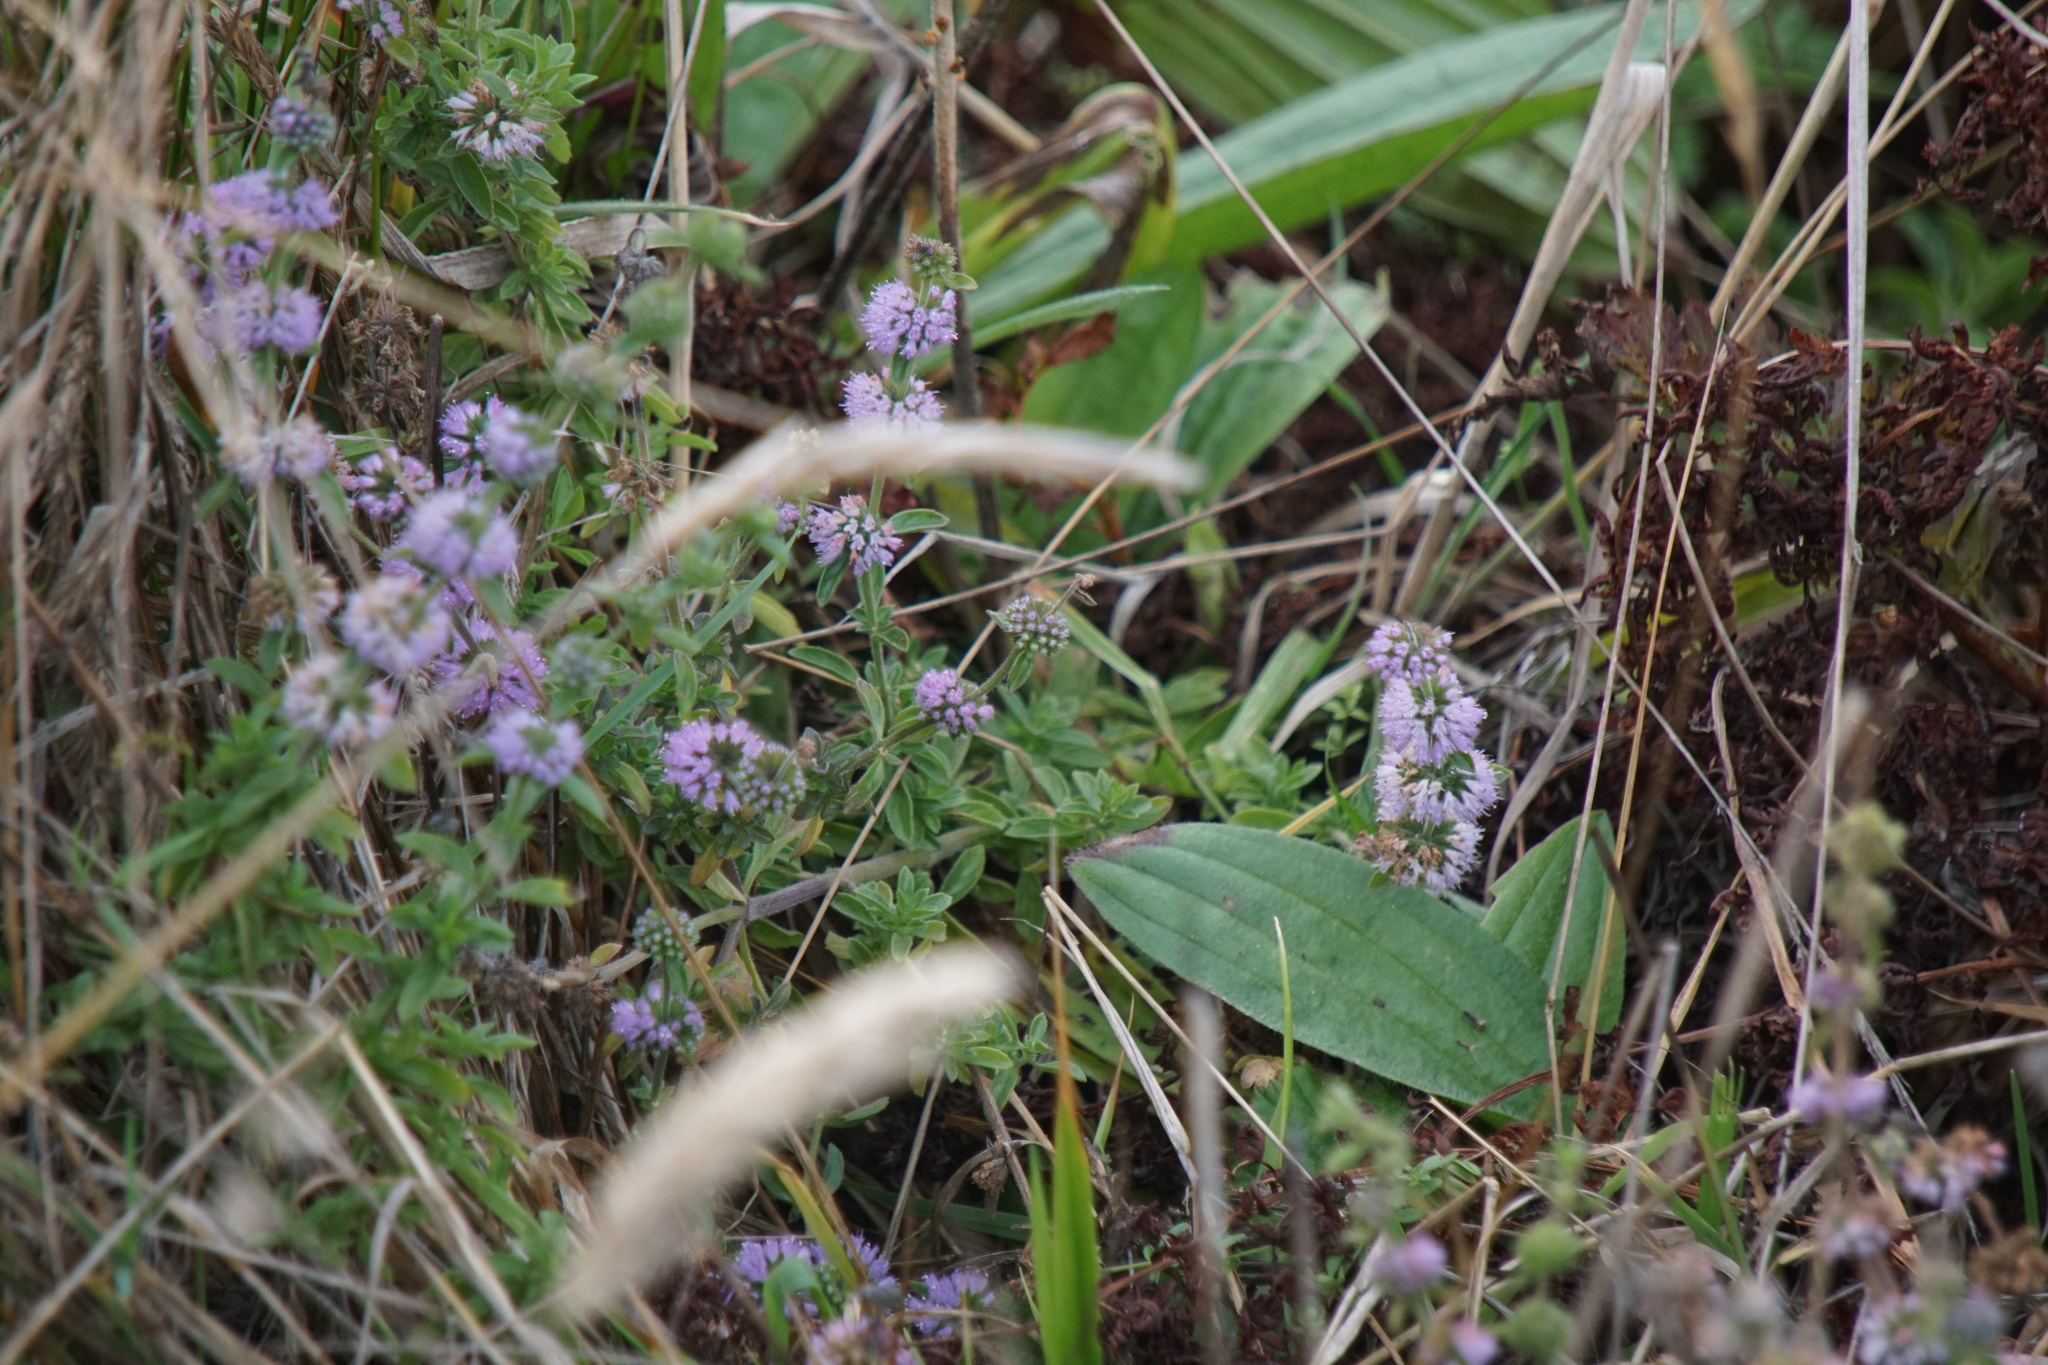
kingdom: Plantae
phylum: Tracheophyta
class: Magnoliopsida
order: Lamiales
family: Lamiaceae
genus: Mentha
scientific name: Mentha pulegium
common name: Pennyroyal
